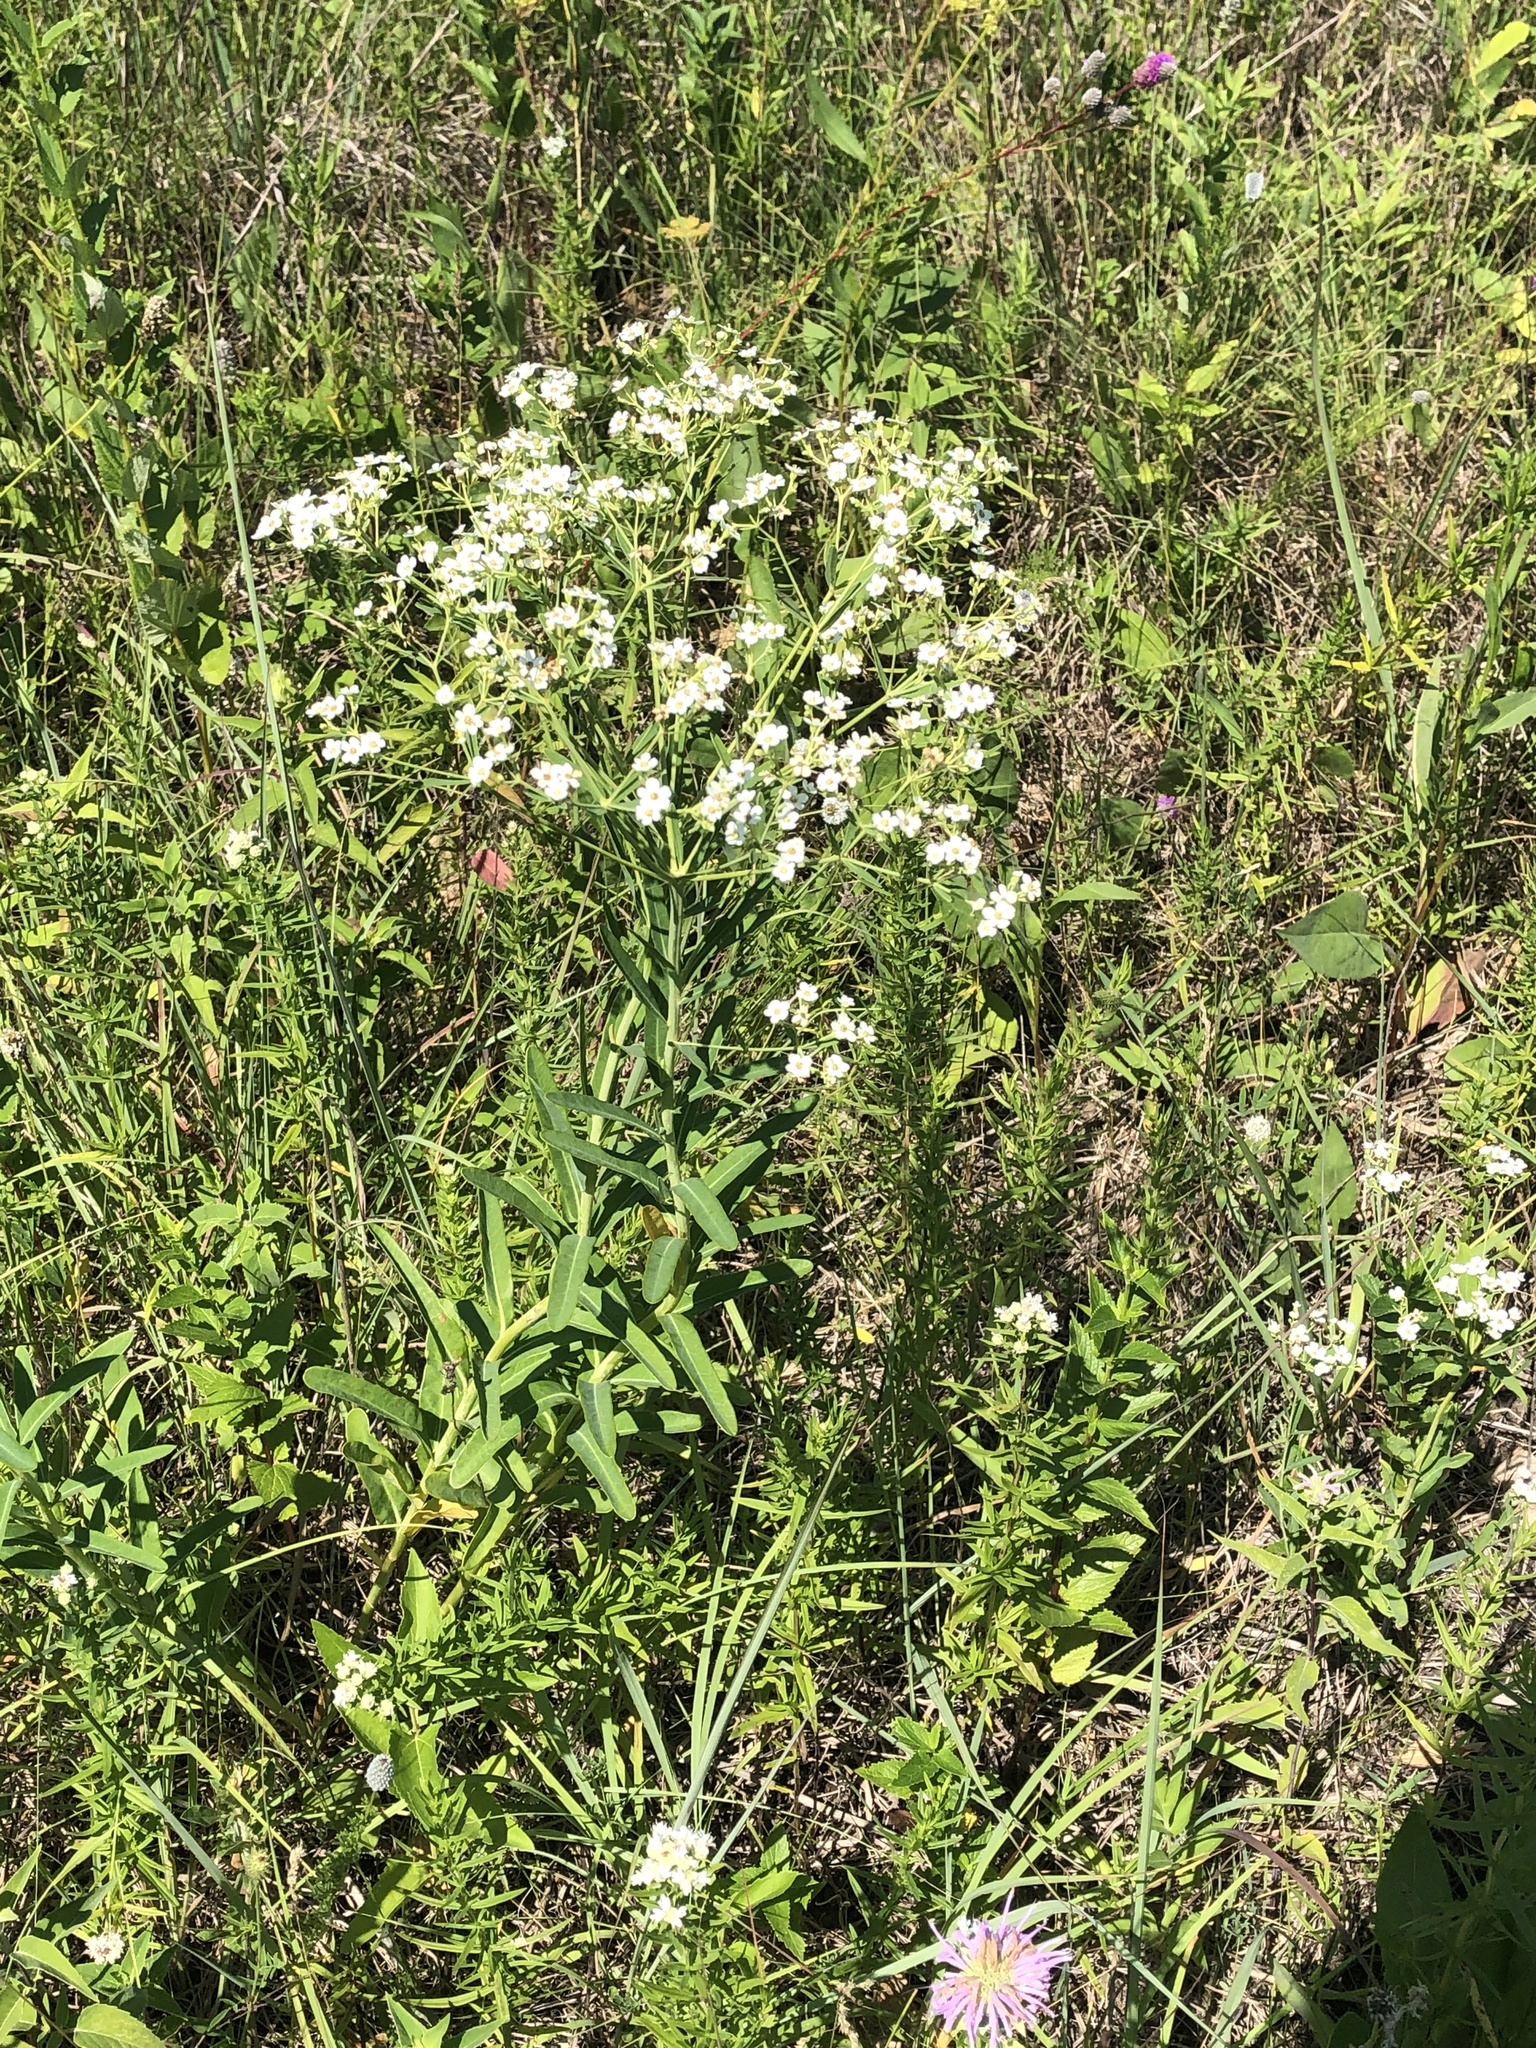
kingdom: Plantae
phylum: Tracheophyta
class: Magnoliopsida
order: Malpighiales
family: Euphorbiaceae
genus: Euphorbia
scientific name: Euphorbia corollata
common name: Flowering spurge
